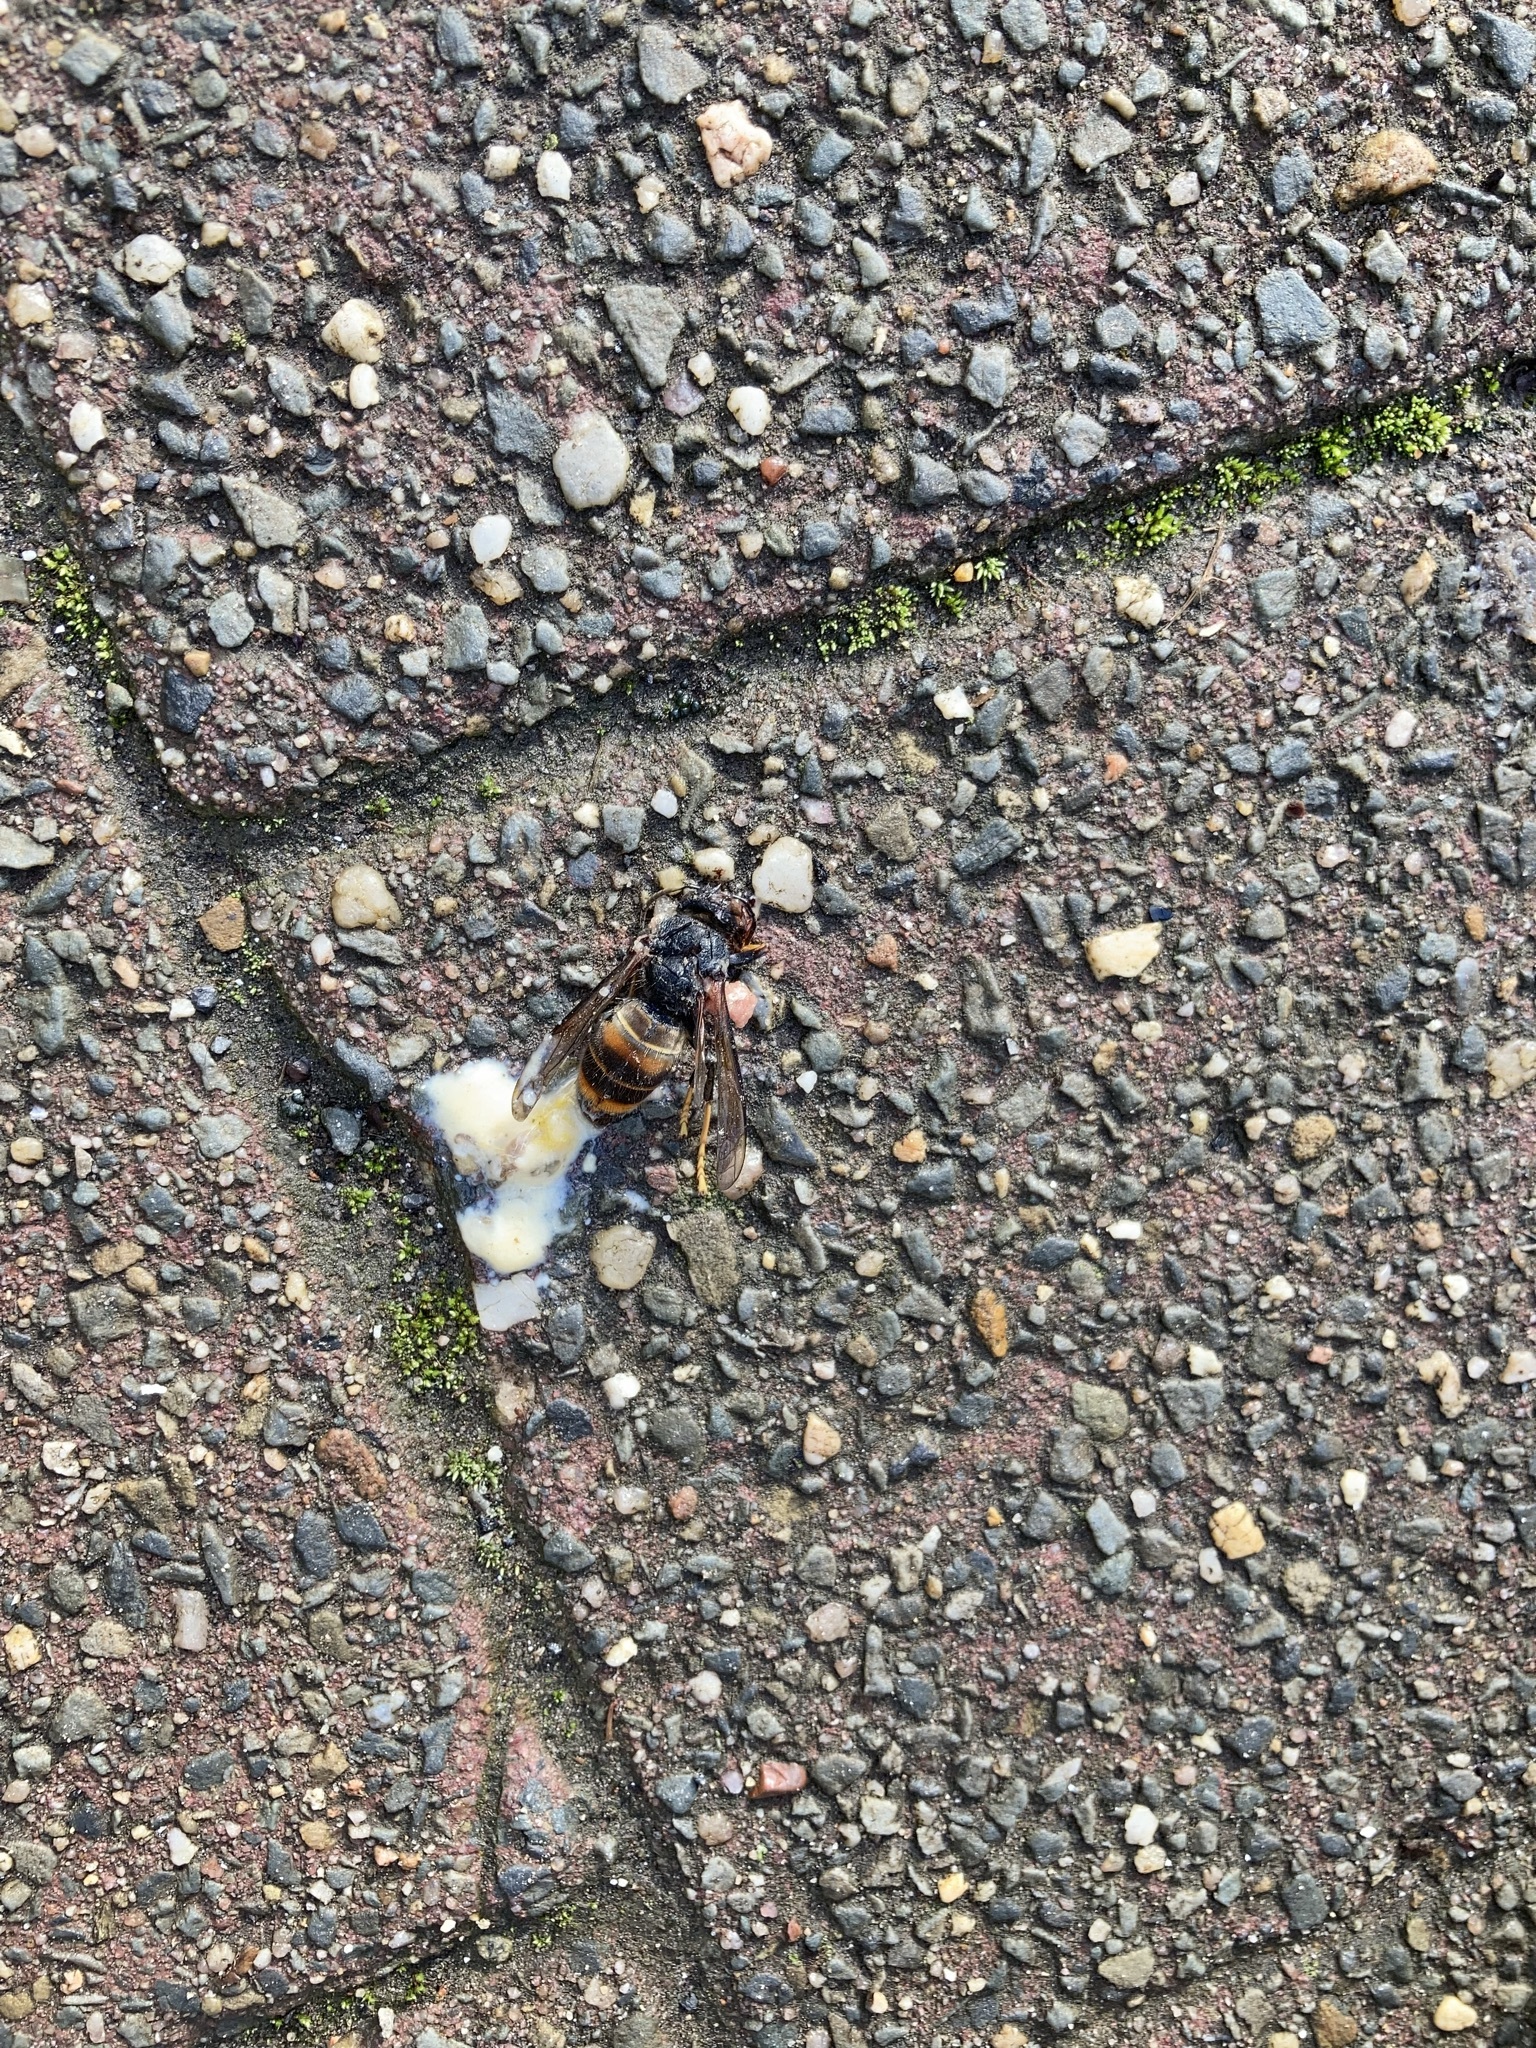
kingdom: Animalia
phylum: Arthropoda
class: Insecta
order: Hymenoptera
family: Vespidae
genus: Vespa
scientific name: Vespa velutina
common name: Asian hornet
